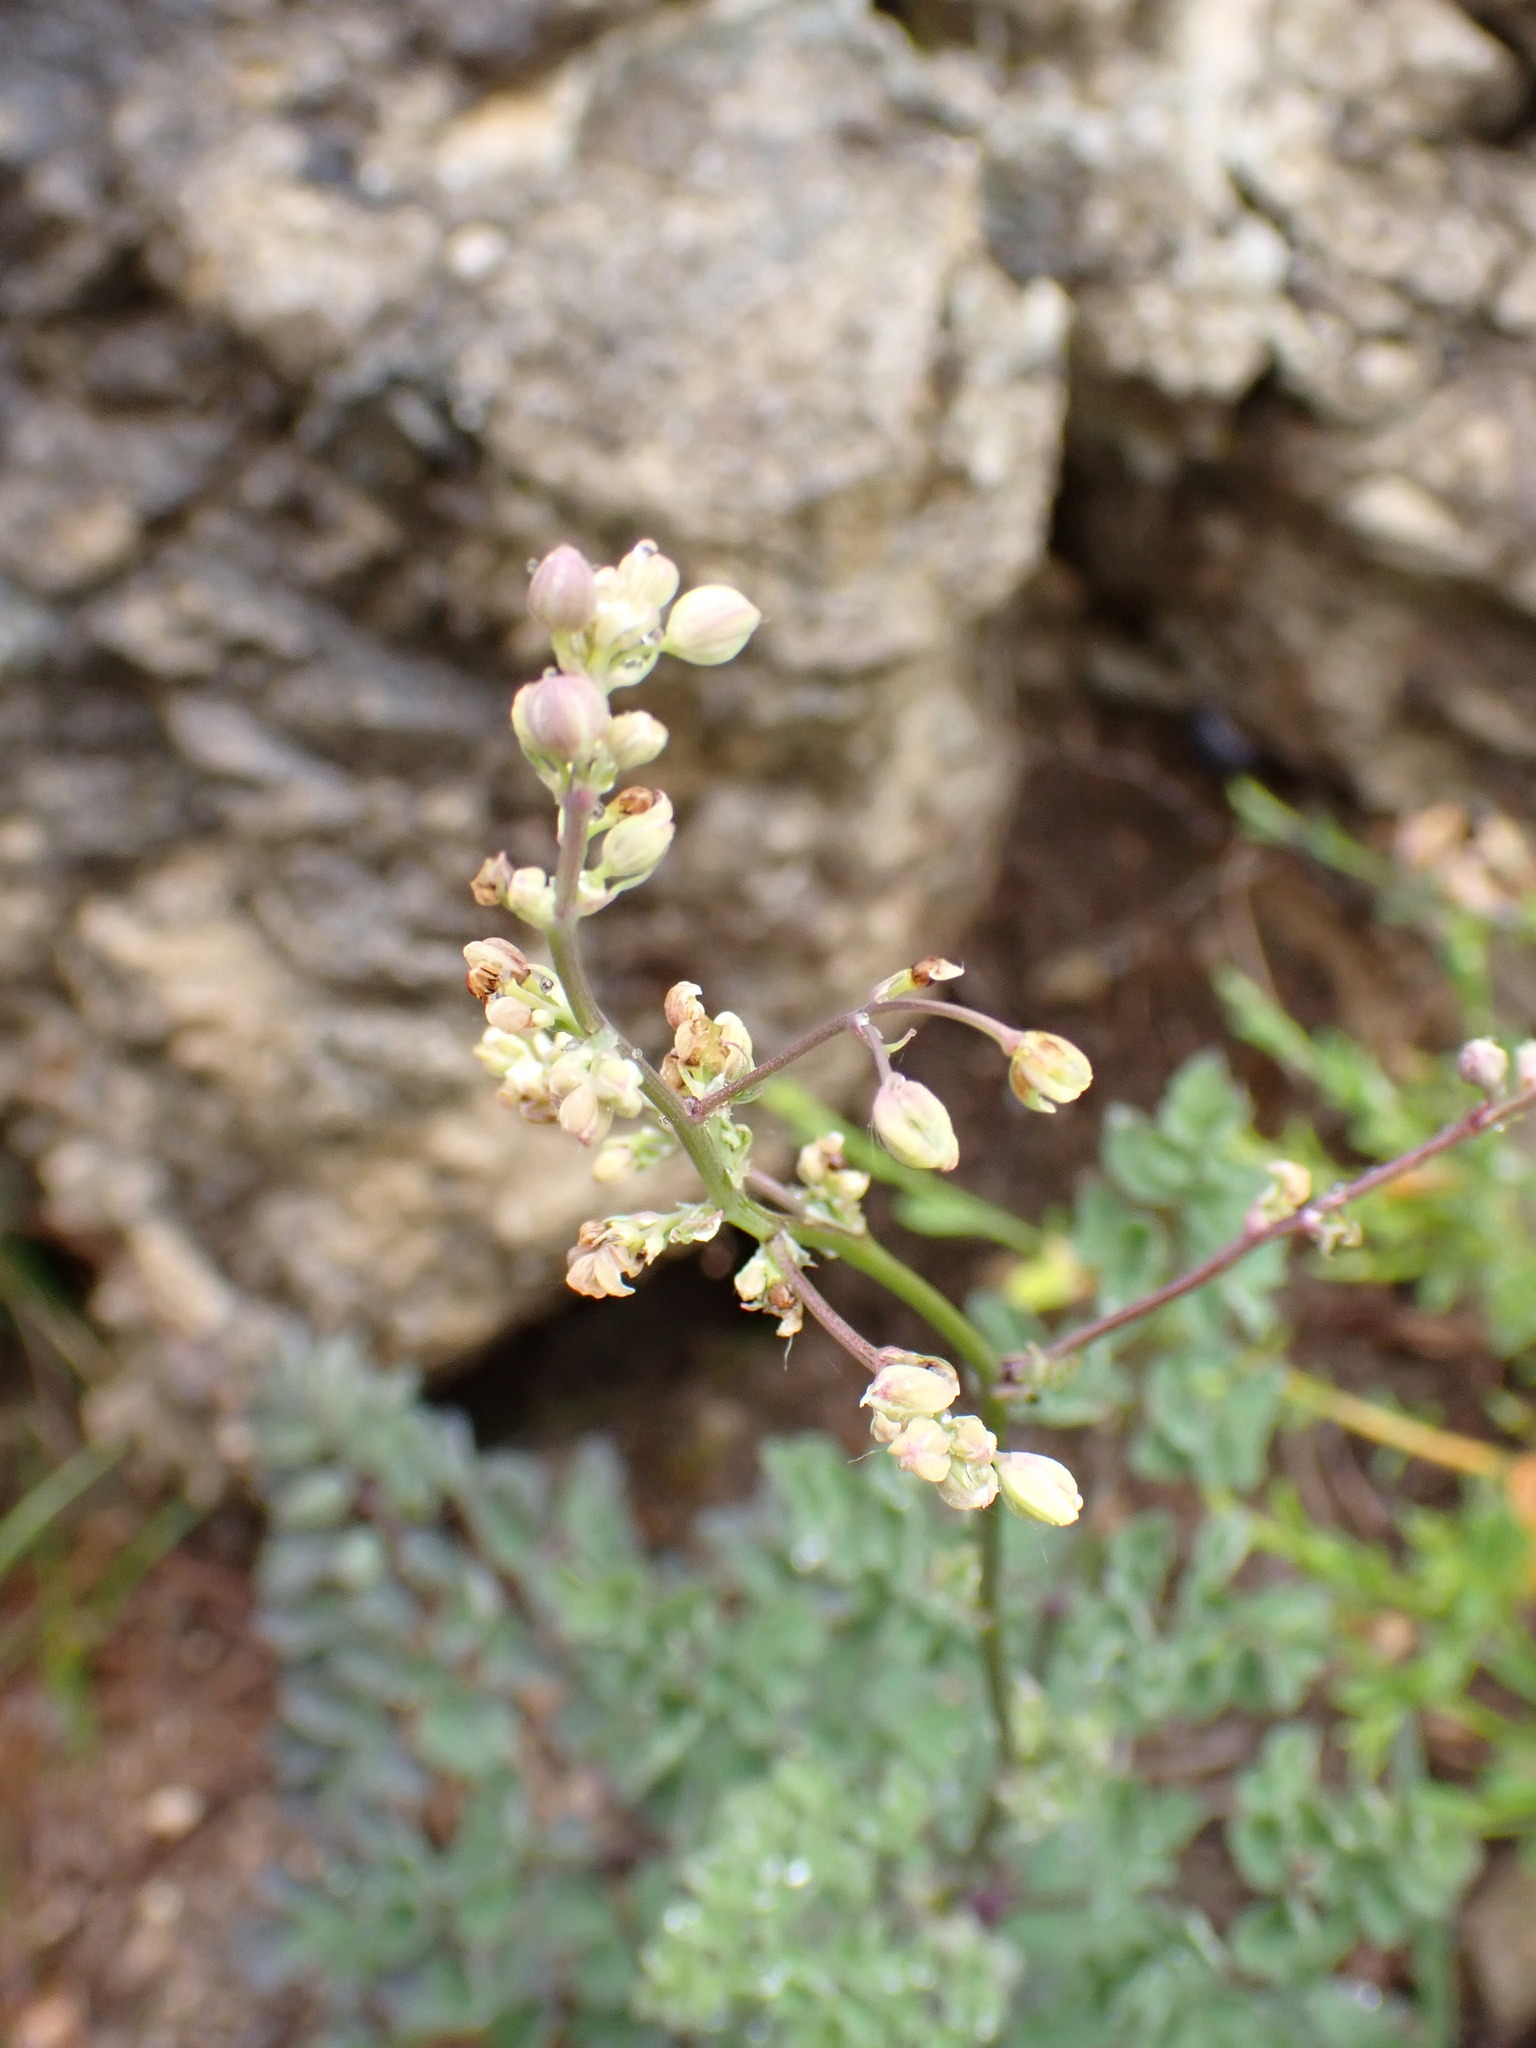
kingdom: Plantae
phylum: Tracheophyta
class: Magnoliopsida
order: Ranunculales
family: Ranunculaceae
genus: Thalictrum
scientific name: Thalictrum minus
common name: Lesser meadow-rue
